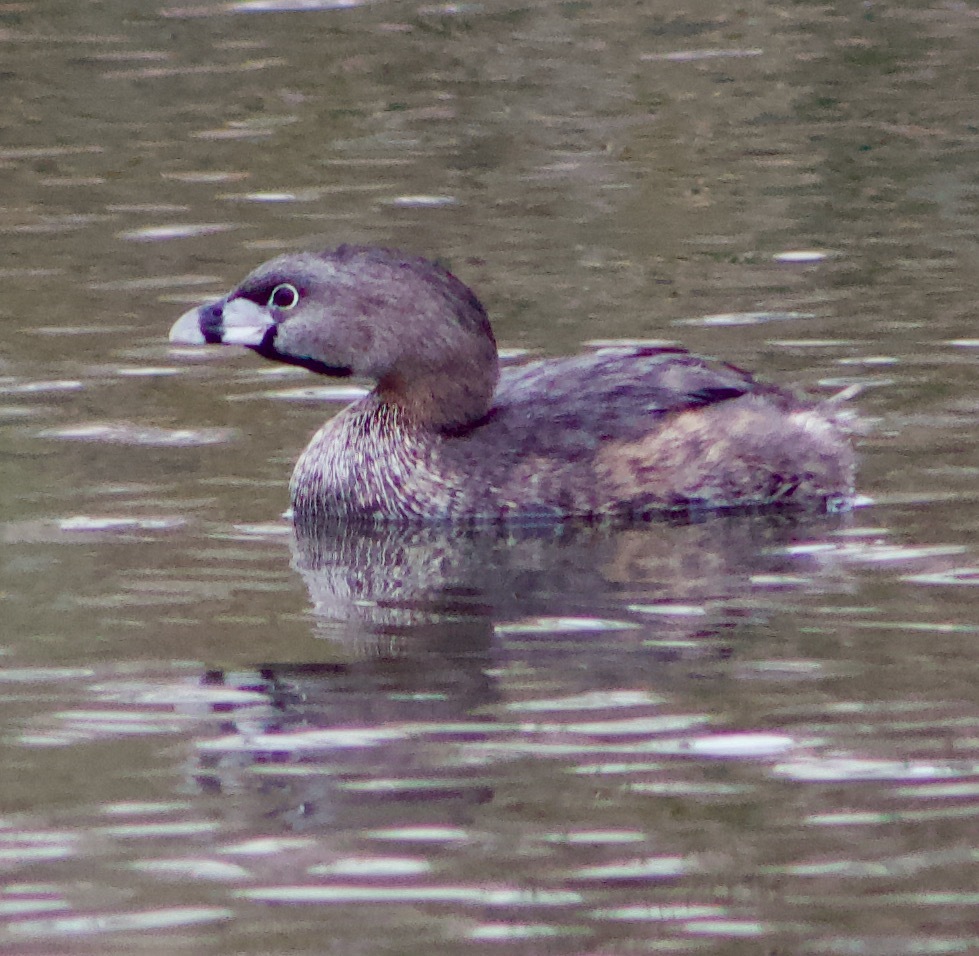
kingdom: Animalia
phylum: Chordata
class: Aves
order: Podicipediformes
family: Podicipedidae
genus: Podilymbus
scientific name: Podilymbus podiceps
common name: Pied-billed grebe
